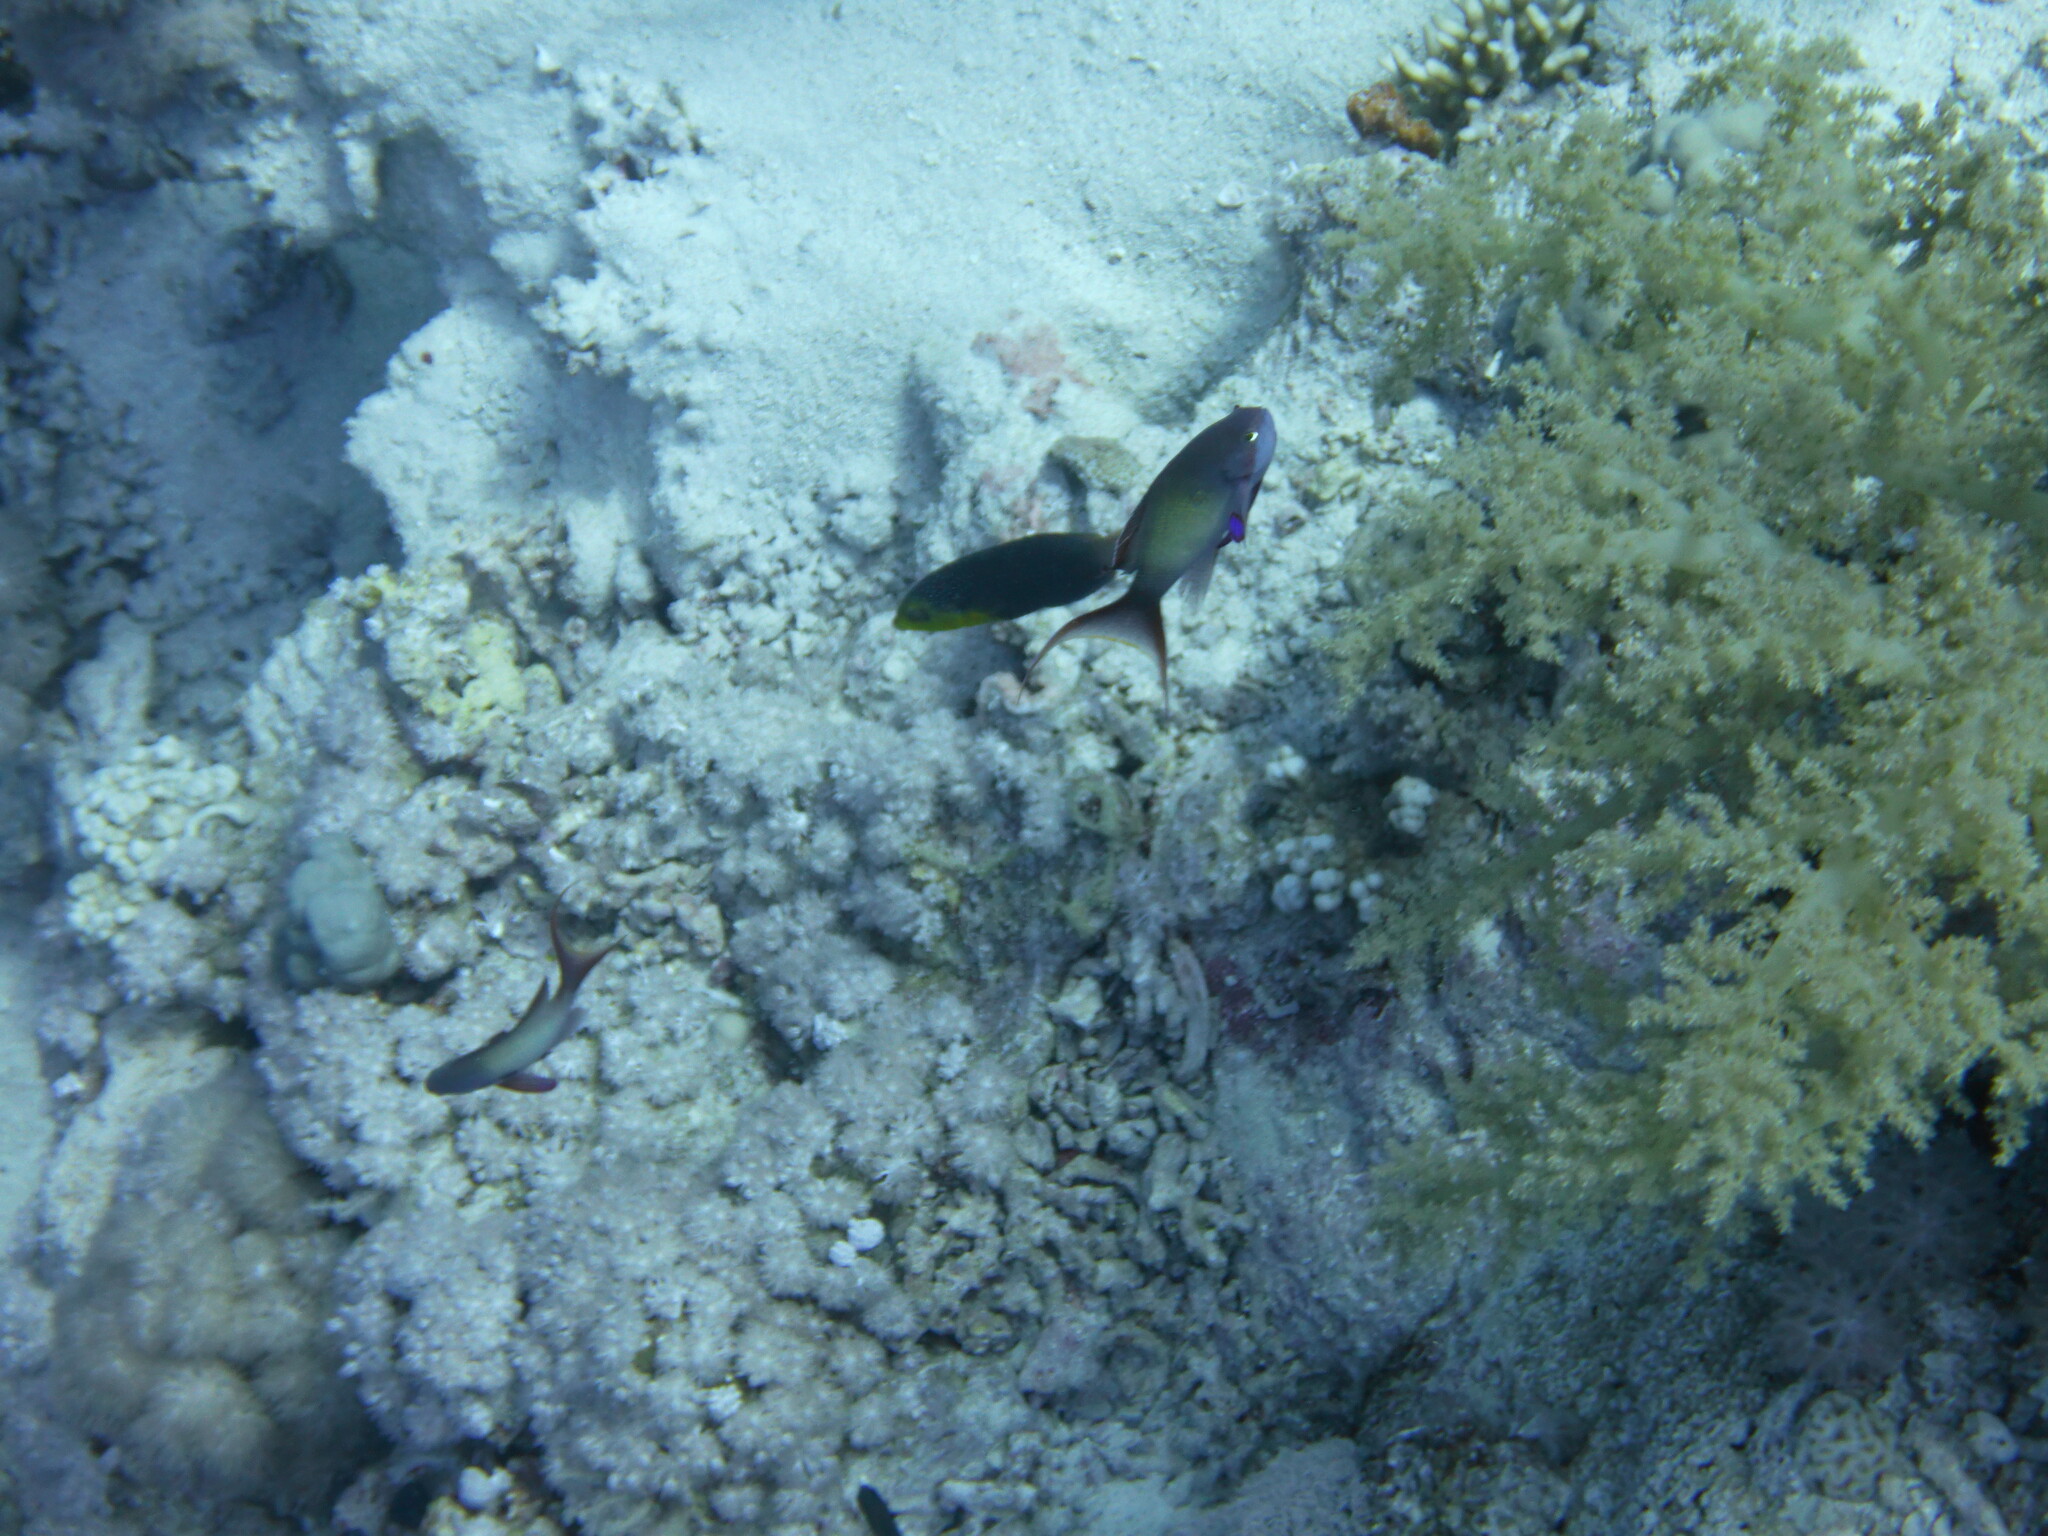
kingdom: Animalia
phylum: Chordata
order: Perciformes
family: Labridae
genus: Anampses
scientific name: Anampses twistii
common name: Yellowbreasted wrasse
